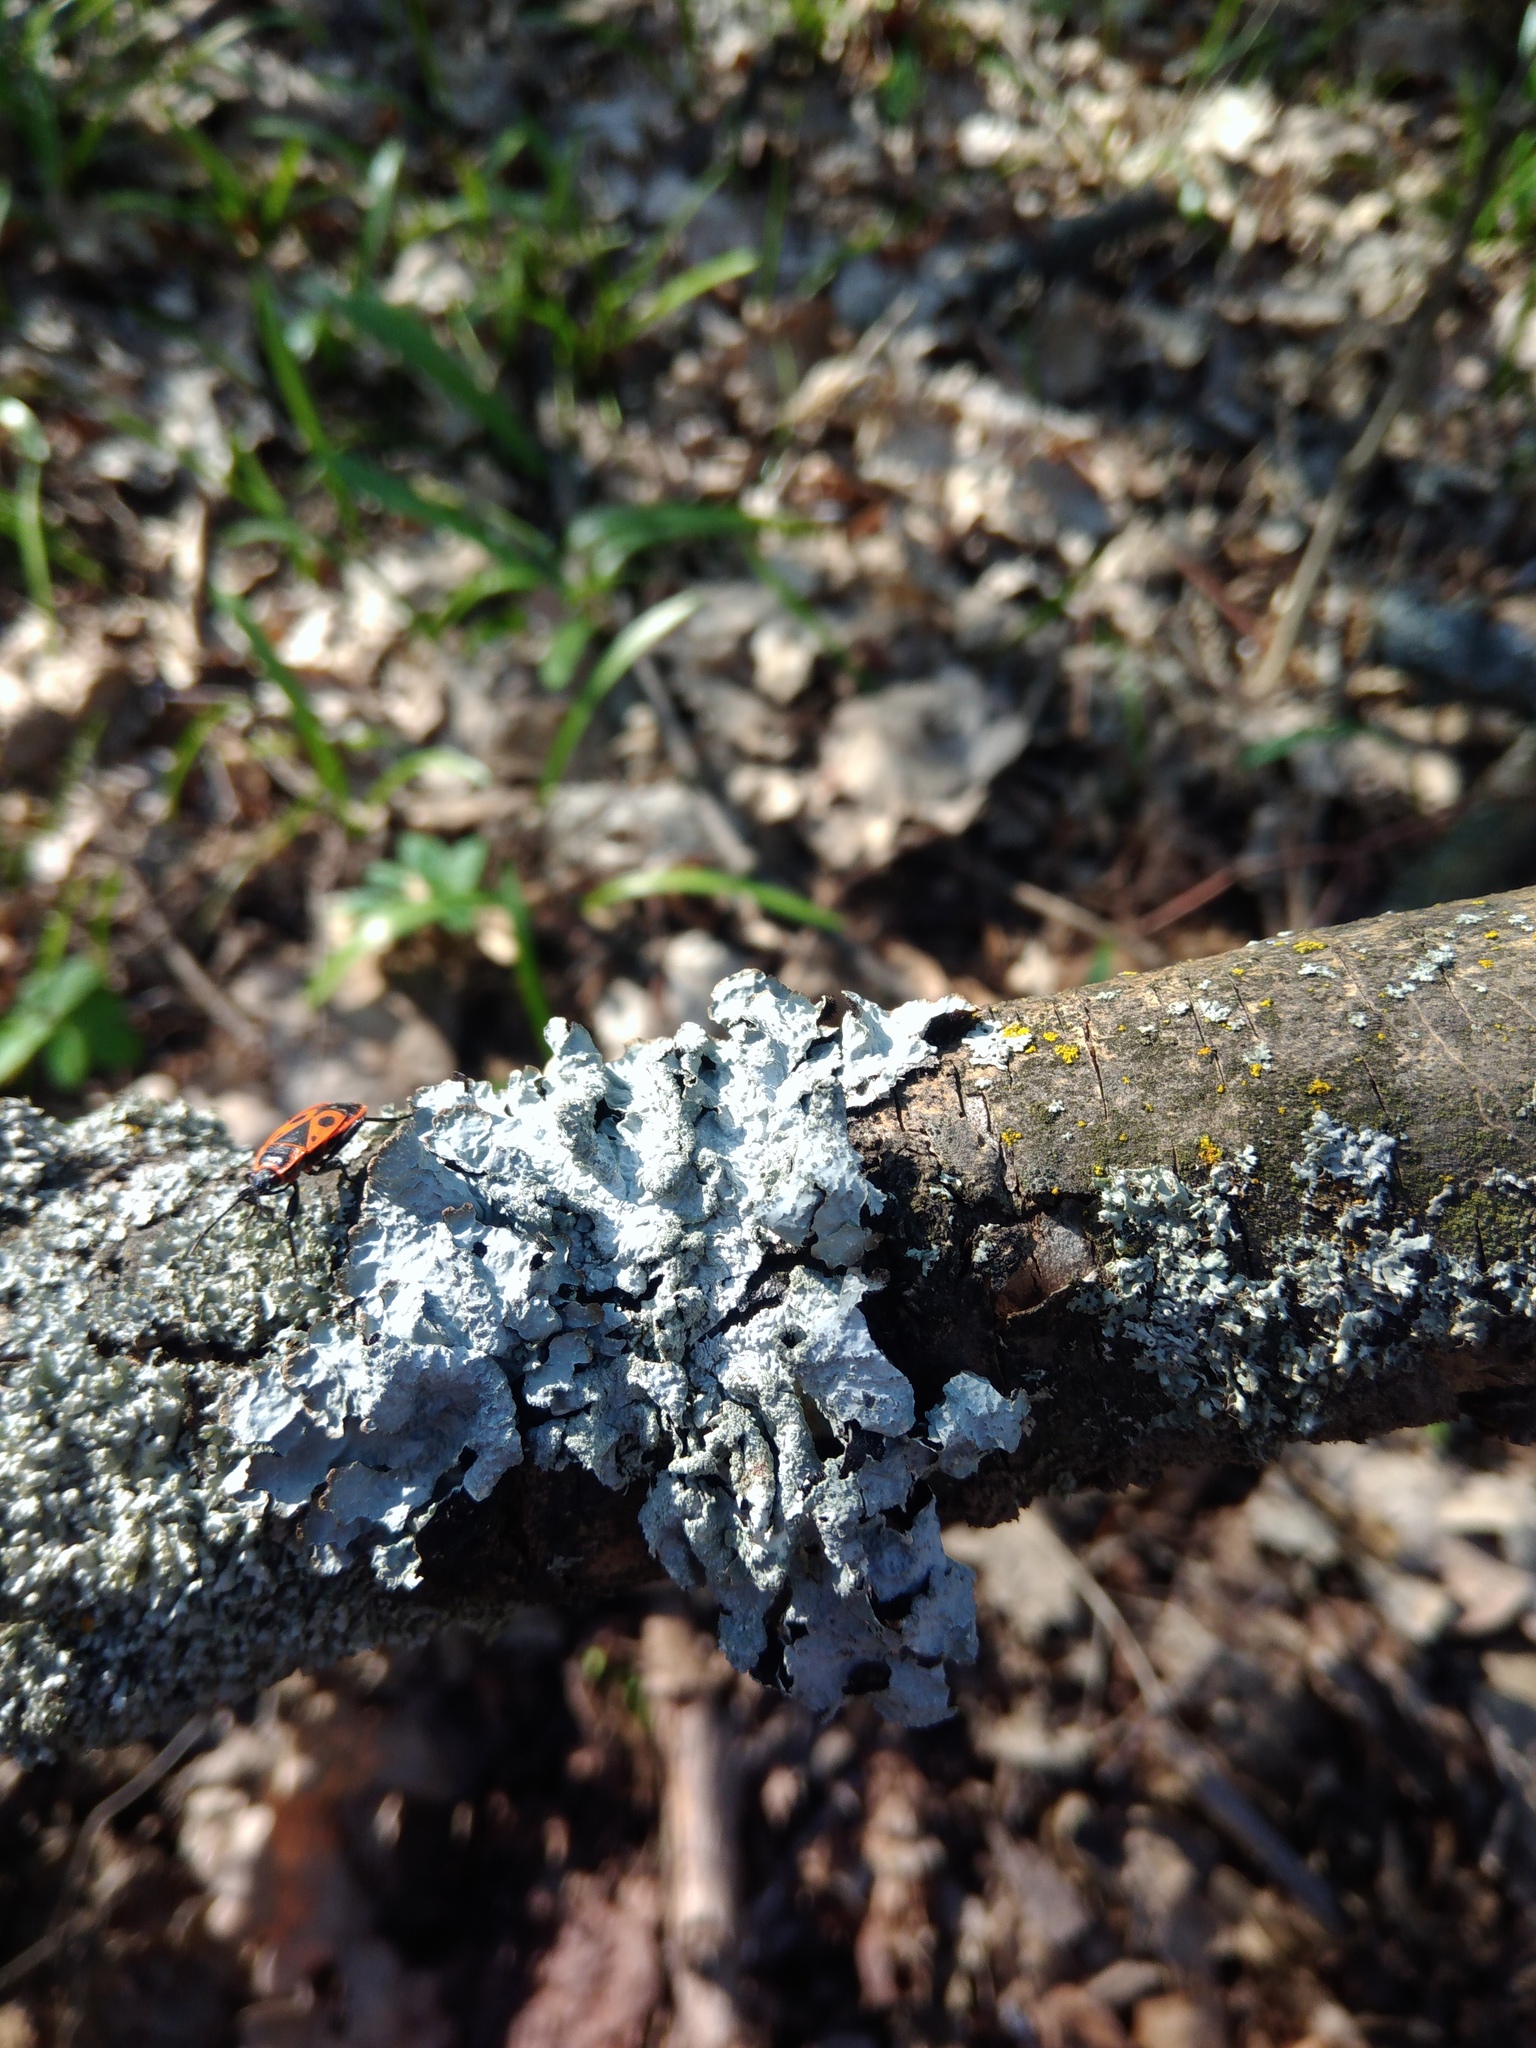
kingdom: Fungi
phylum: Ascomycota
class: Lecanoromycetes
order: Lecanorales
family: Parmeliaceae
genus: Parmelia
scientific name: Parmelia sulcata
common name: Netted shield lichen
